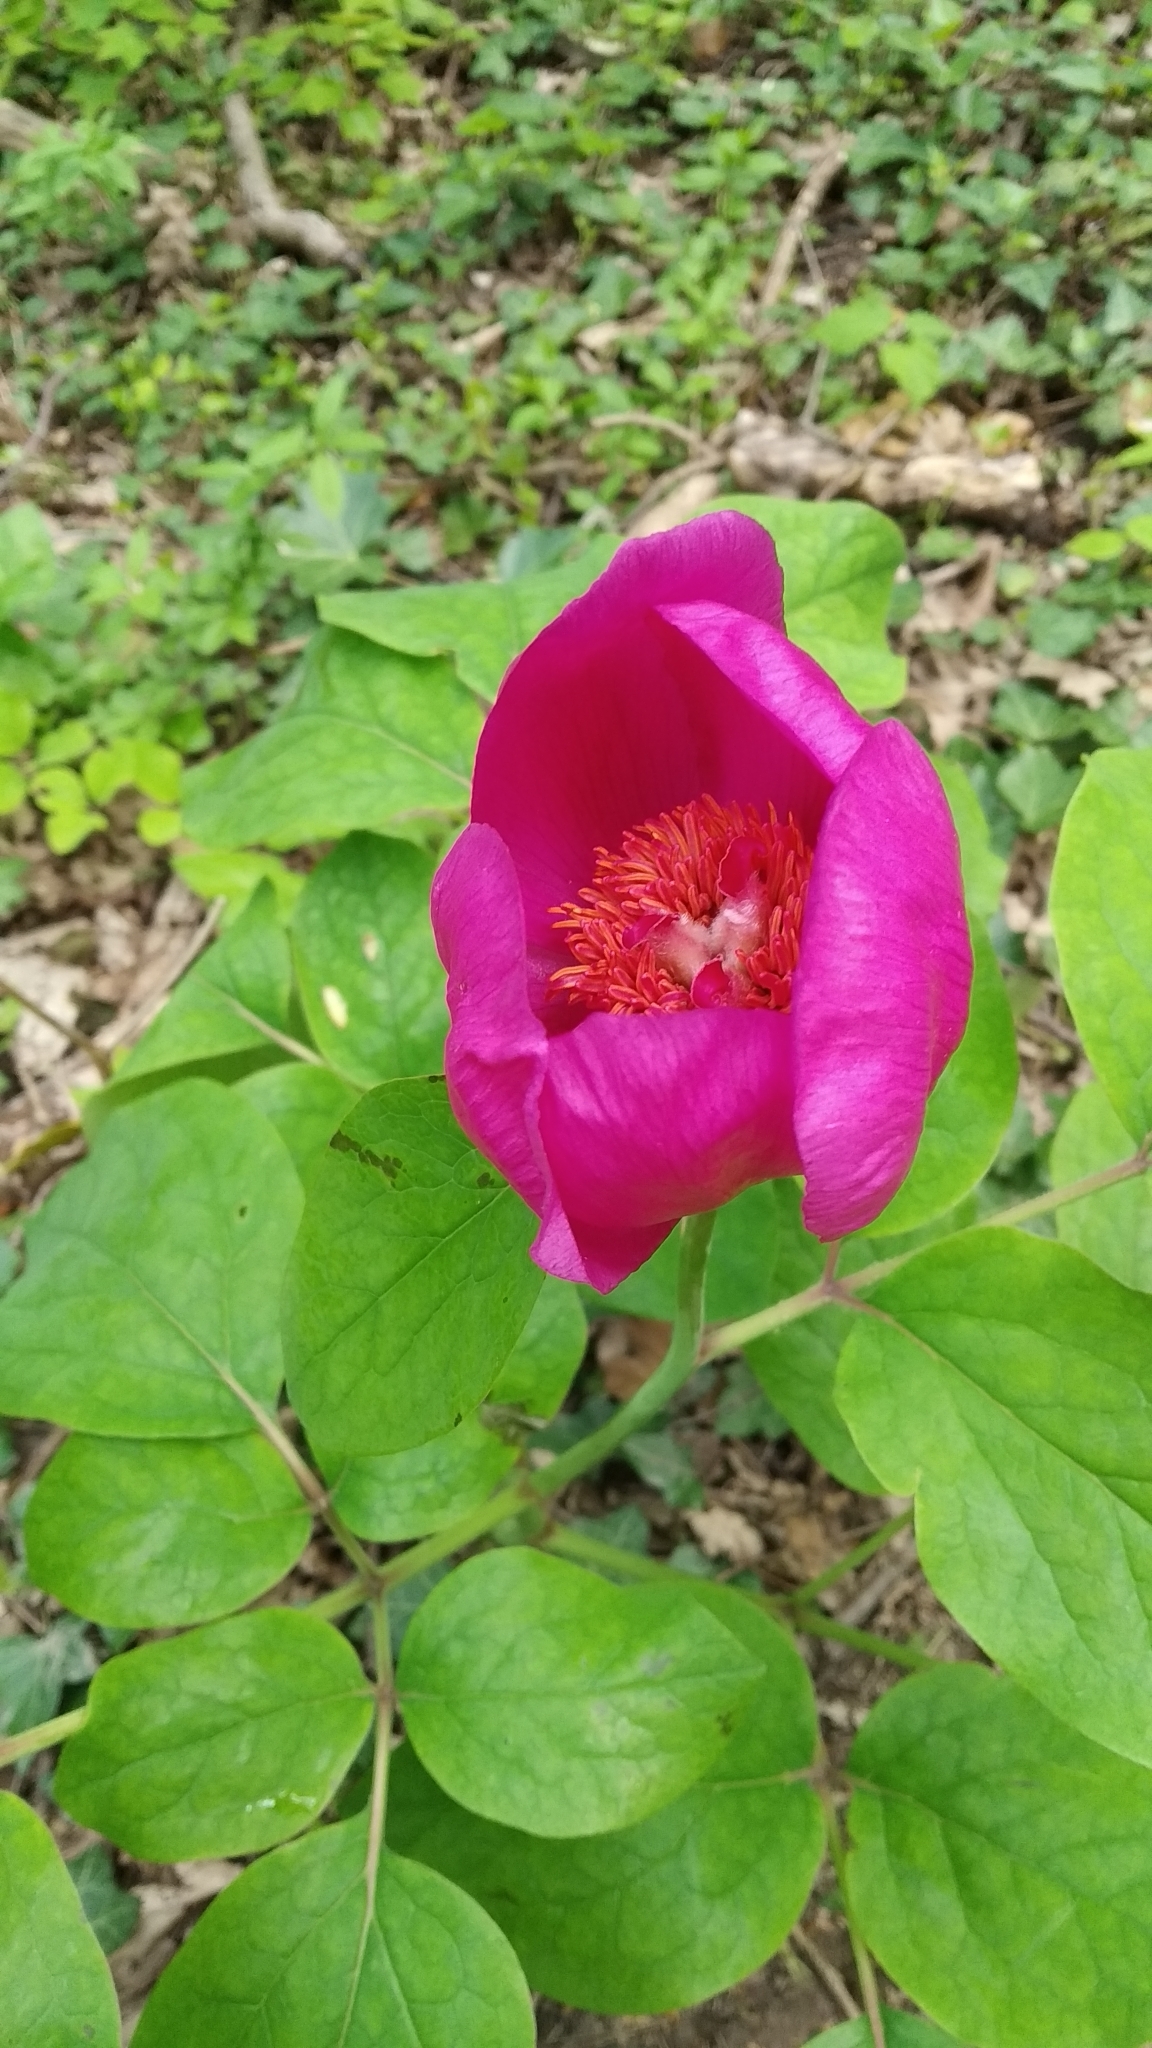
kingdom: Plantae
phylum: Tracheophyta
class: Magnoliopsida
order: Saxifragales
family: Paeoniaceae
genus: Paeonia
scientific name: Paeonia caucasica
